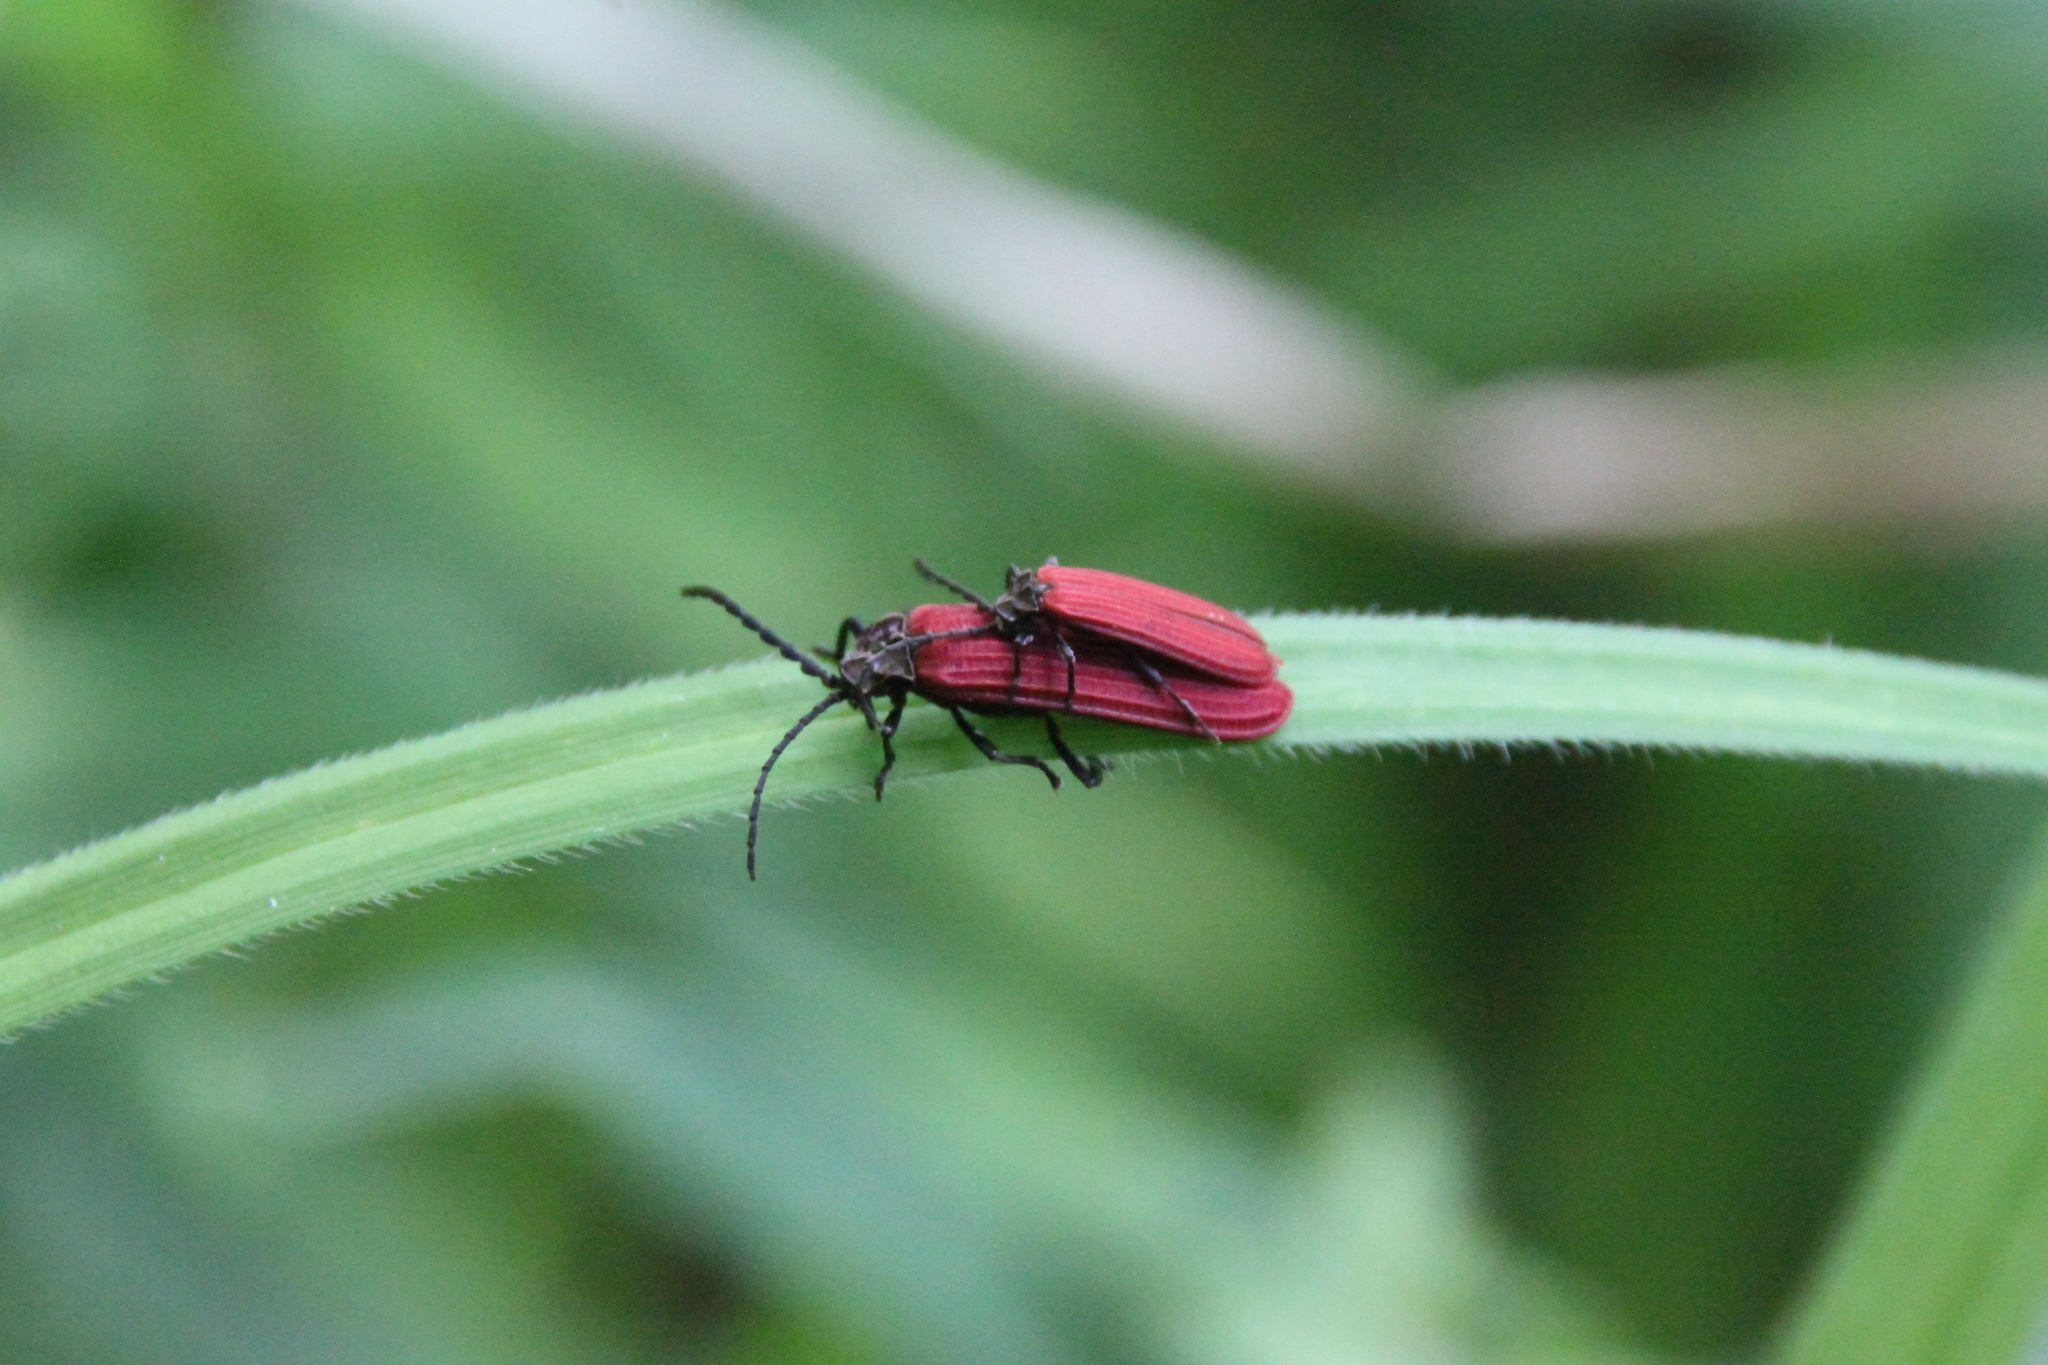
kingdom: Animalia
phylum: Arthropoda
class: Insecta
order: Coleoptera
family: Lycidae
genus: Xylobanellus
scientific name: Xylobanellus erythropterus
